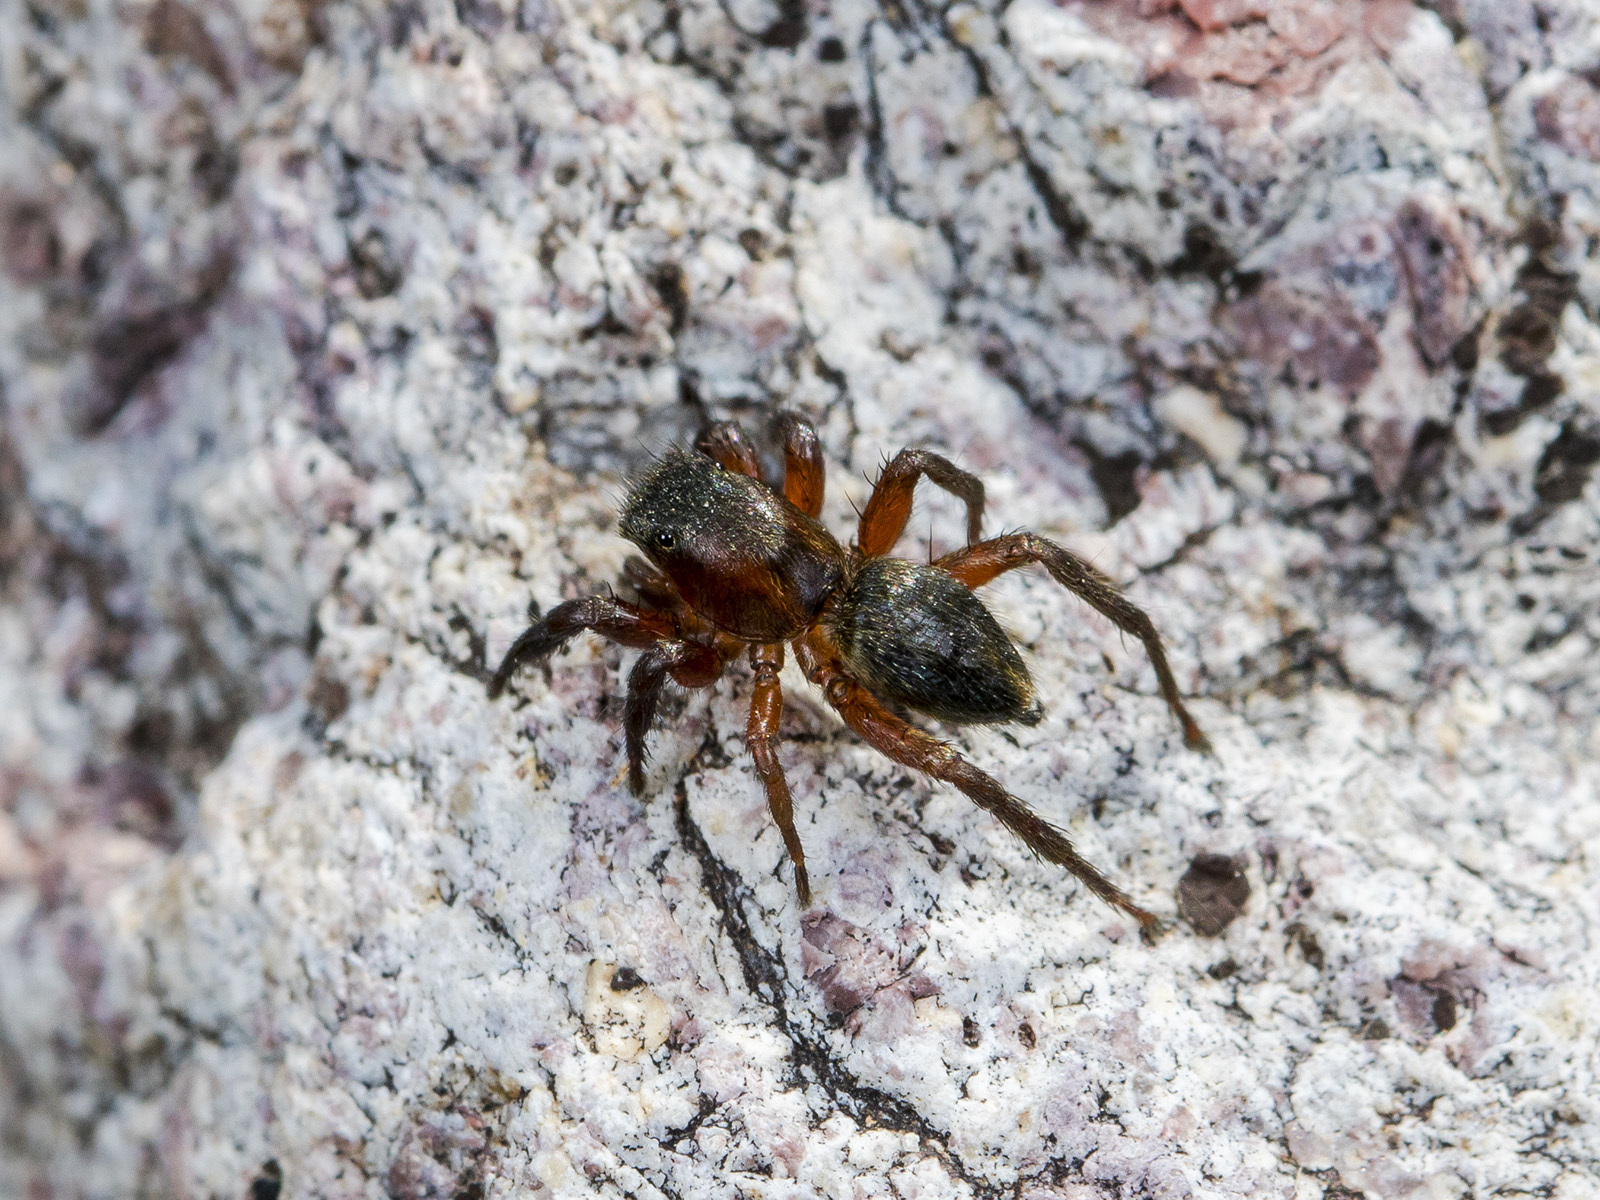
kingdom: Animalia
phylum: Arthropoda
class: Arachnida
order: Araneae
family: Salticidae
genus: Phlegra
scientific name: Phlegra fasciata
